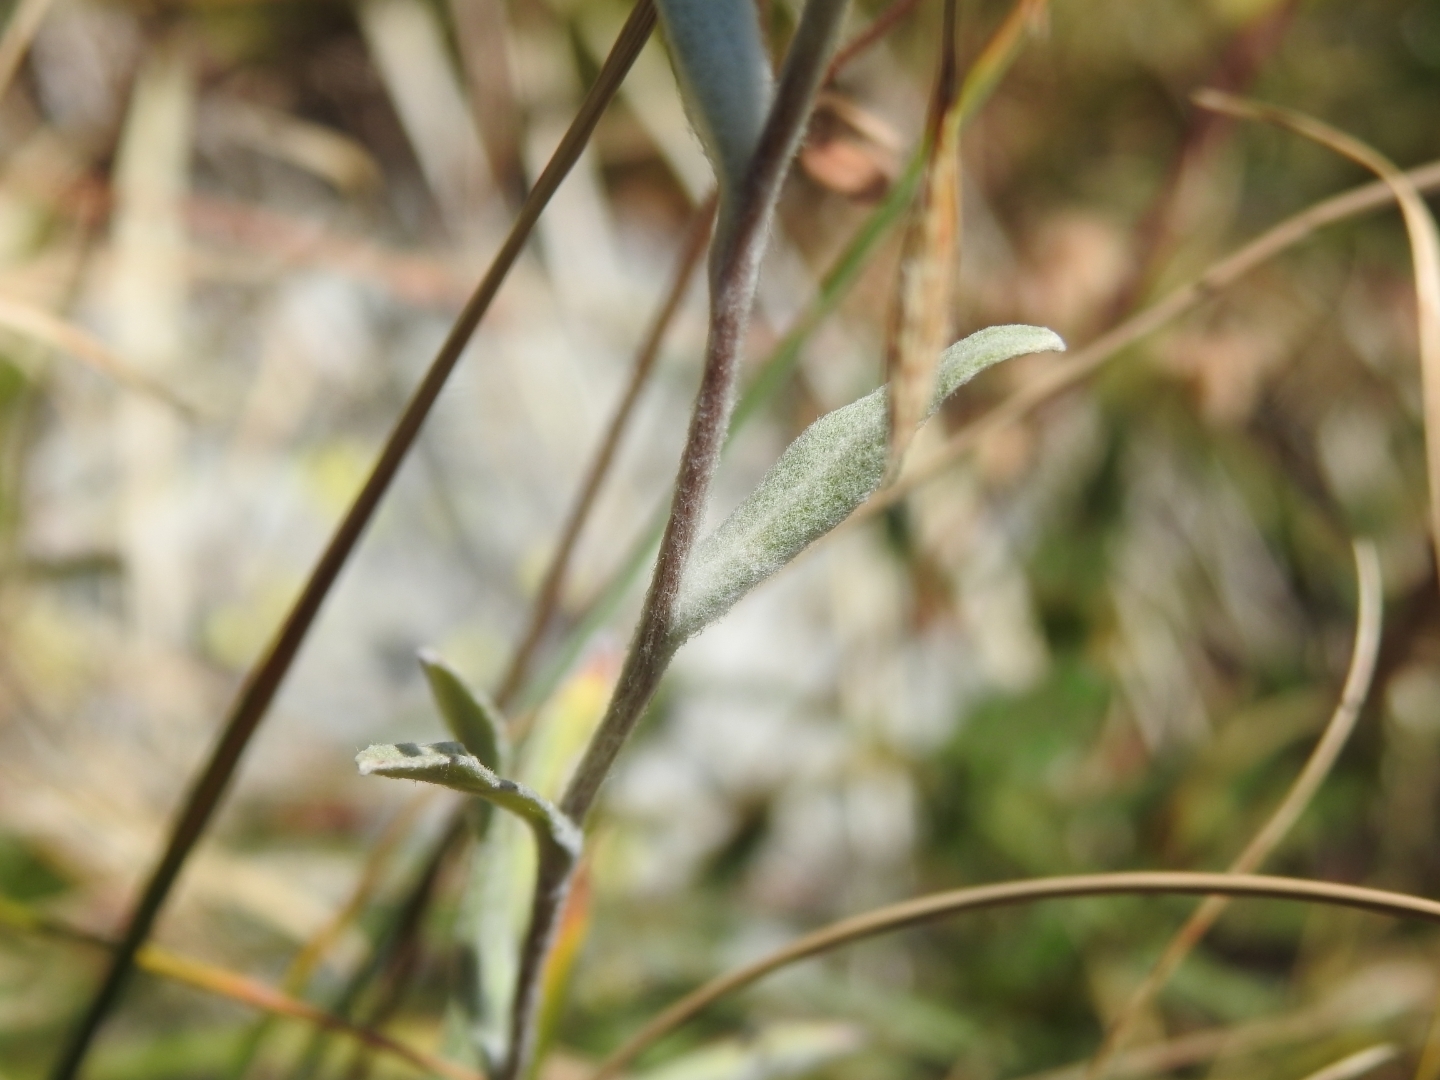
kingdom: Plantae
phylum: Tracheophyta
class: Magnoliopsida
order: Asterales
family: Asteraceae
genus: Leontopodium
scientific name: Leontopodium nivale
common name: Edelweiss
